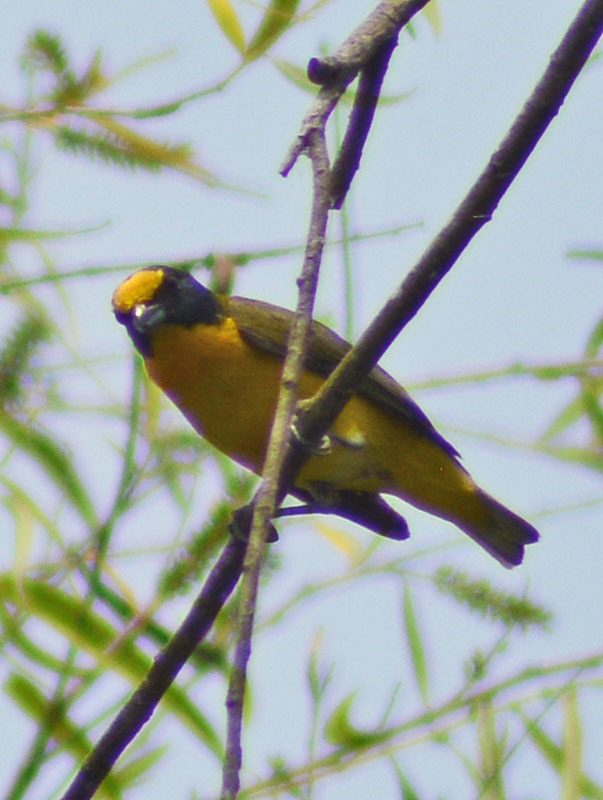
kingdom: Animalia
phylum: Chordata
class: Aves
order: Passeriformes
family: Fringillidae
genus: Euphonia
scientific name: Euphonia hirundinacea
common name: Yellow-throated euphonia
